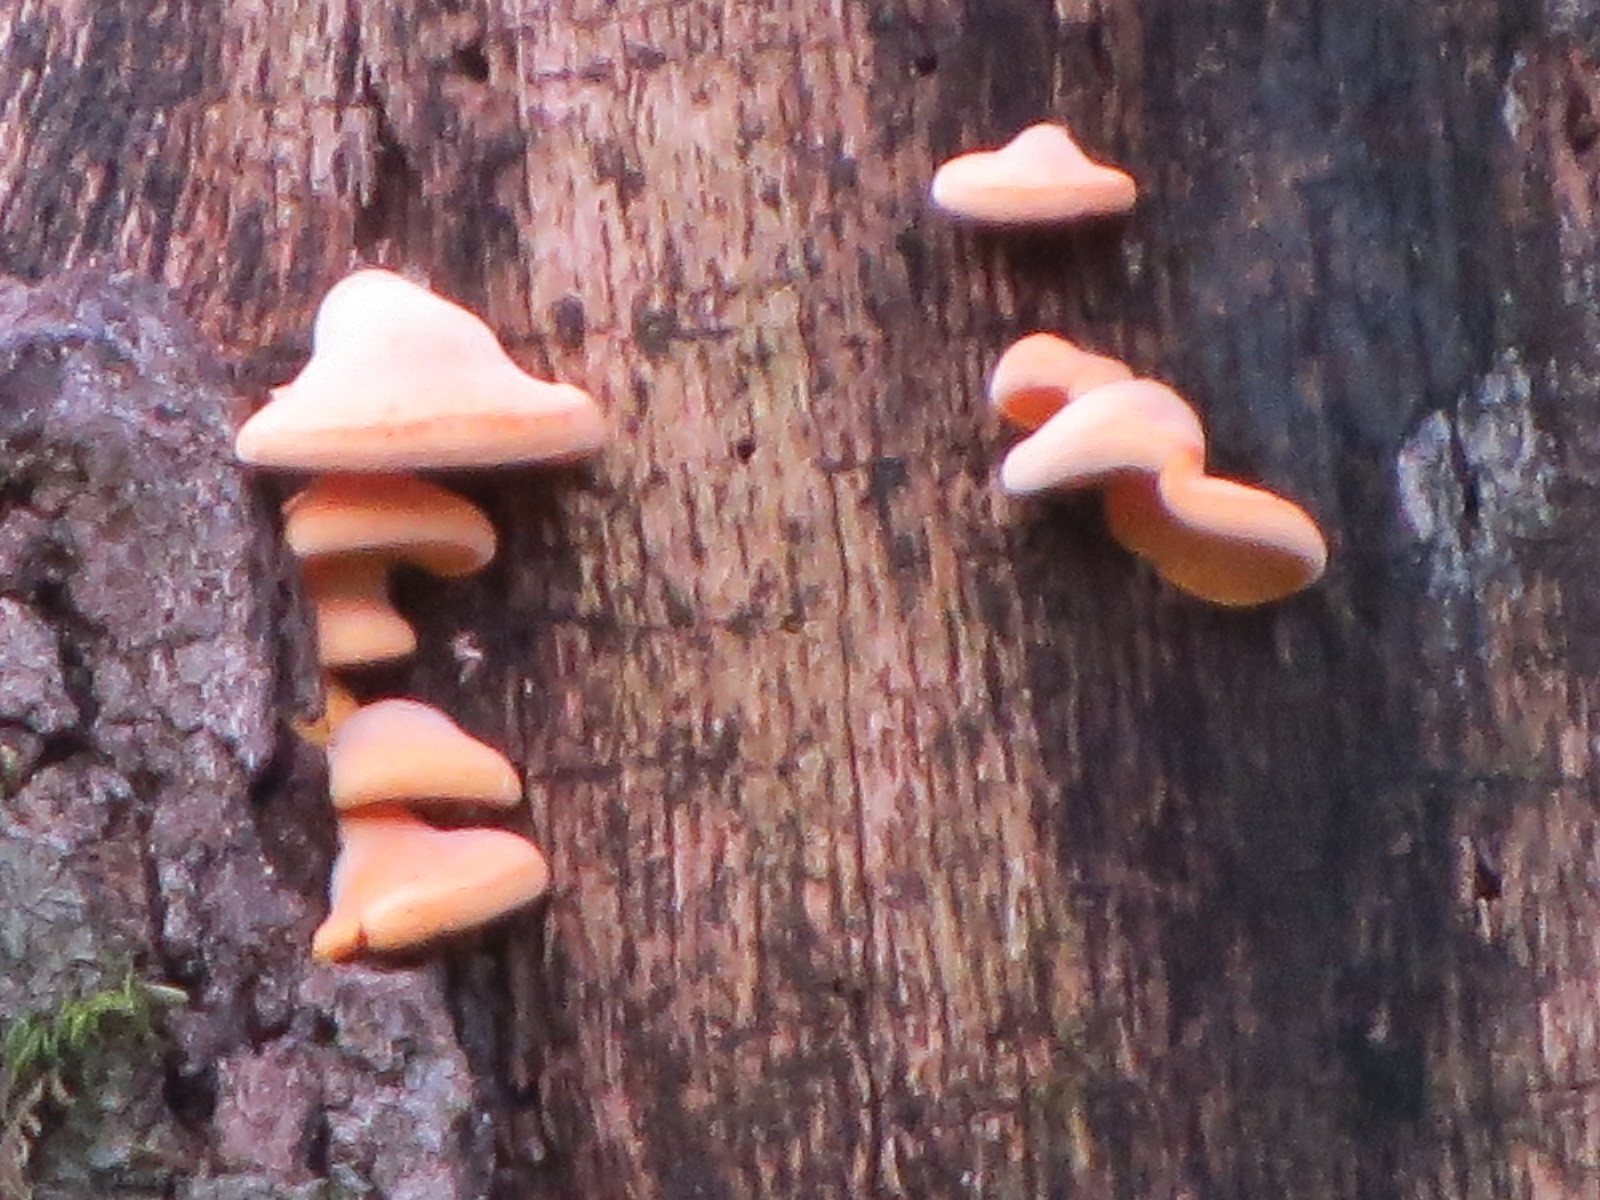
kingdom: Fungi
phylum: Basidiomycota
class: Agaricomycetes
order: Agaricales
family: Phyllotopsidaceae
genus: Phyllotopsis
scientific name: Phyllotopsis nidulans
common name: Orange mock oyster
